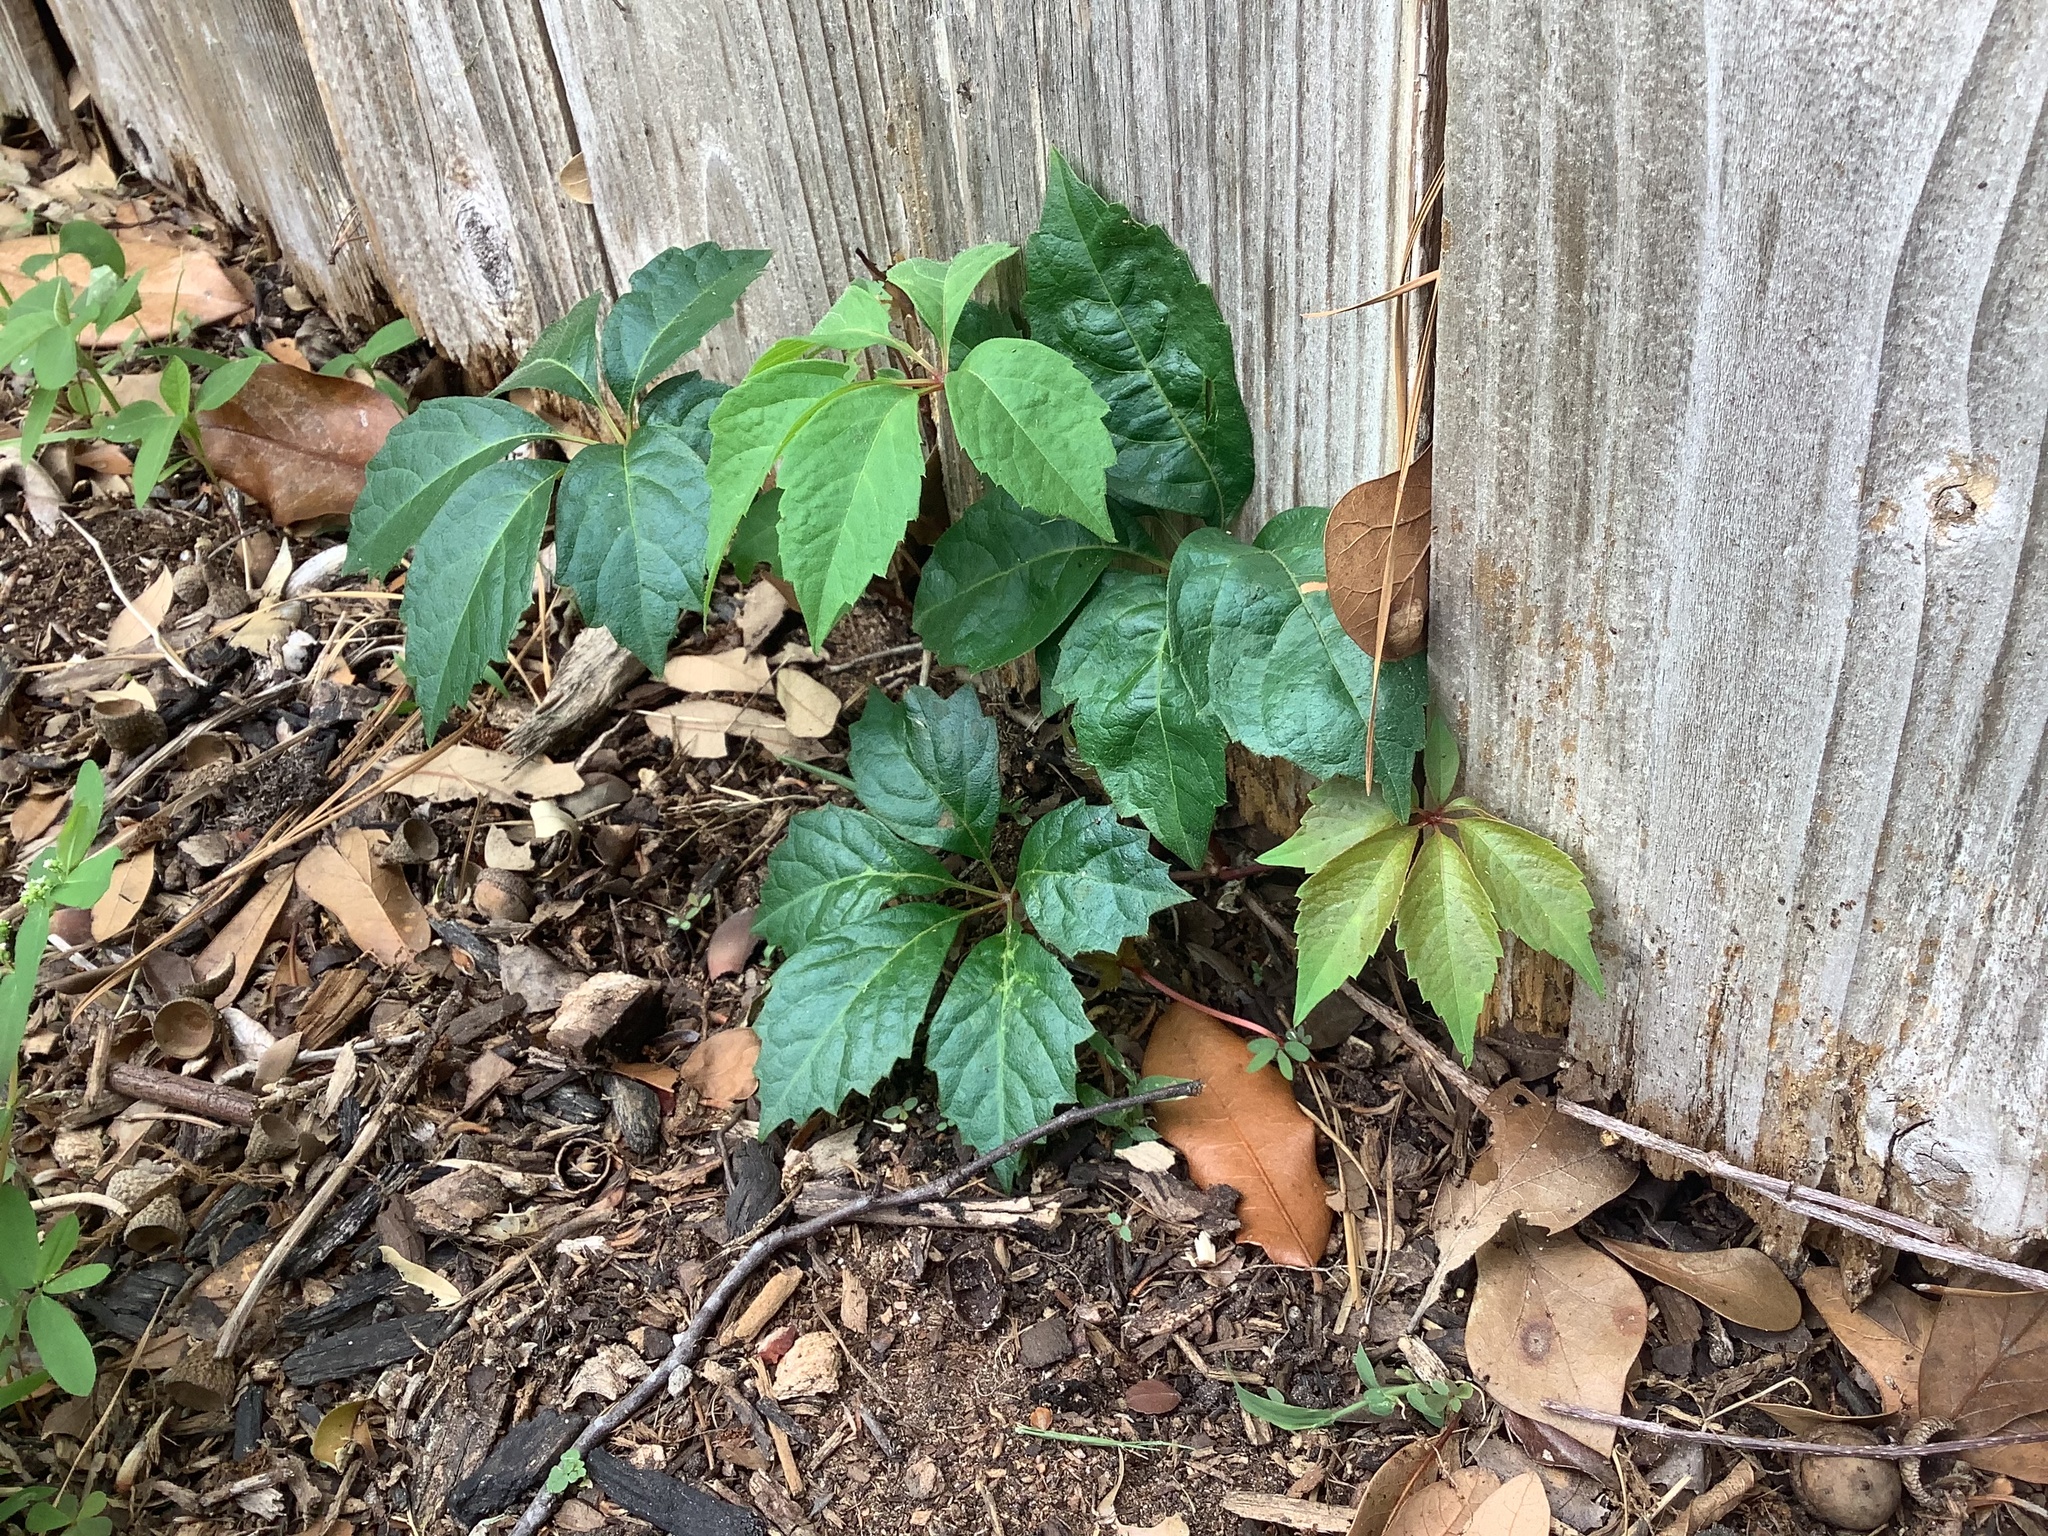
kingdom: Plantae
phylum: Tracheophyta
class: Magnoliopsida
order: Vitales
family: Vitaceae
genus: Parthenocissus
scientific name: Parthenocissus quinquefolia
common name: Virginia-creeper
